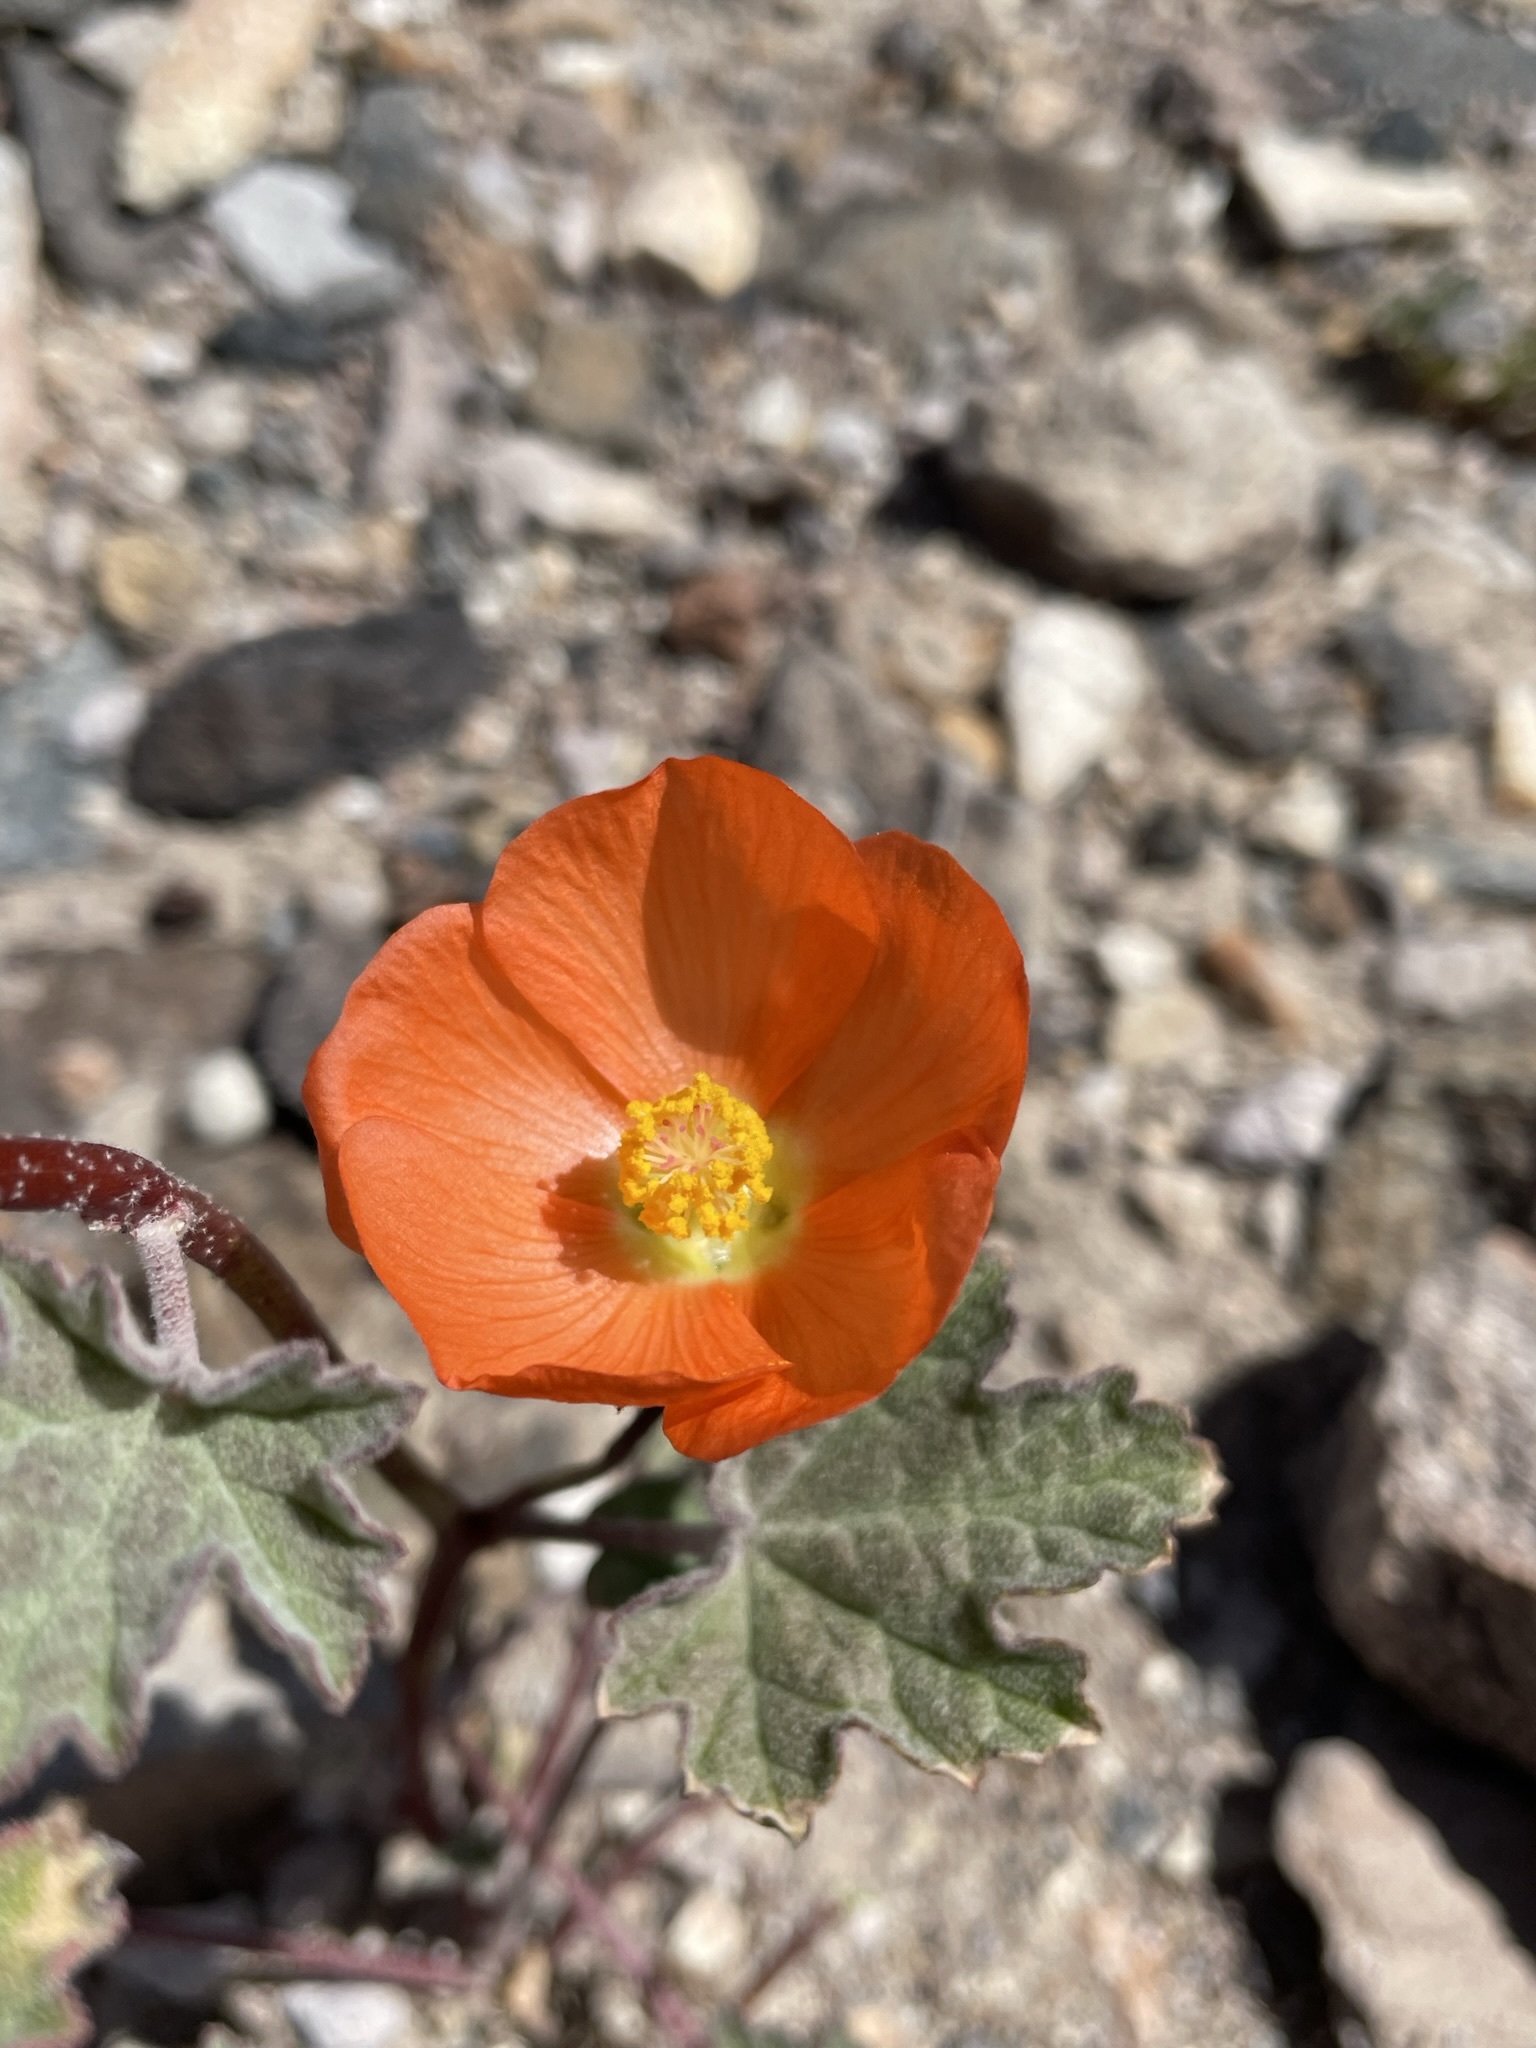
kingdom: Plantae
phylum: Tracheophyta
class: Magnoliopsida
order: Malvales
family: Malvaceae
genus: Sphaeralcea
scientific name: Sphaeralcea ambigua
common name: Apricot globe-mallow
